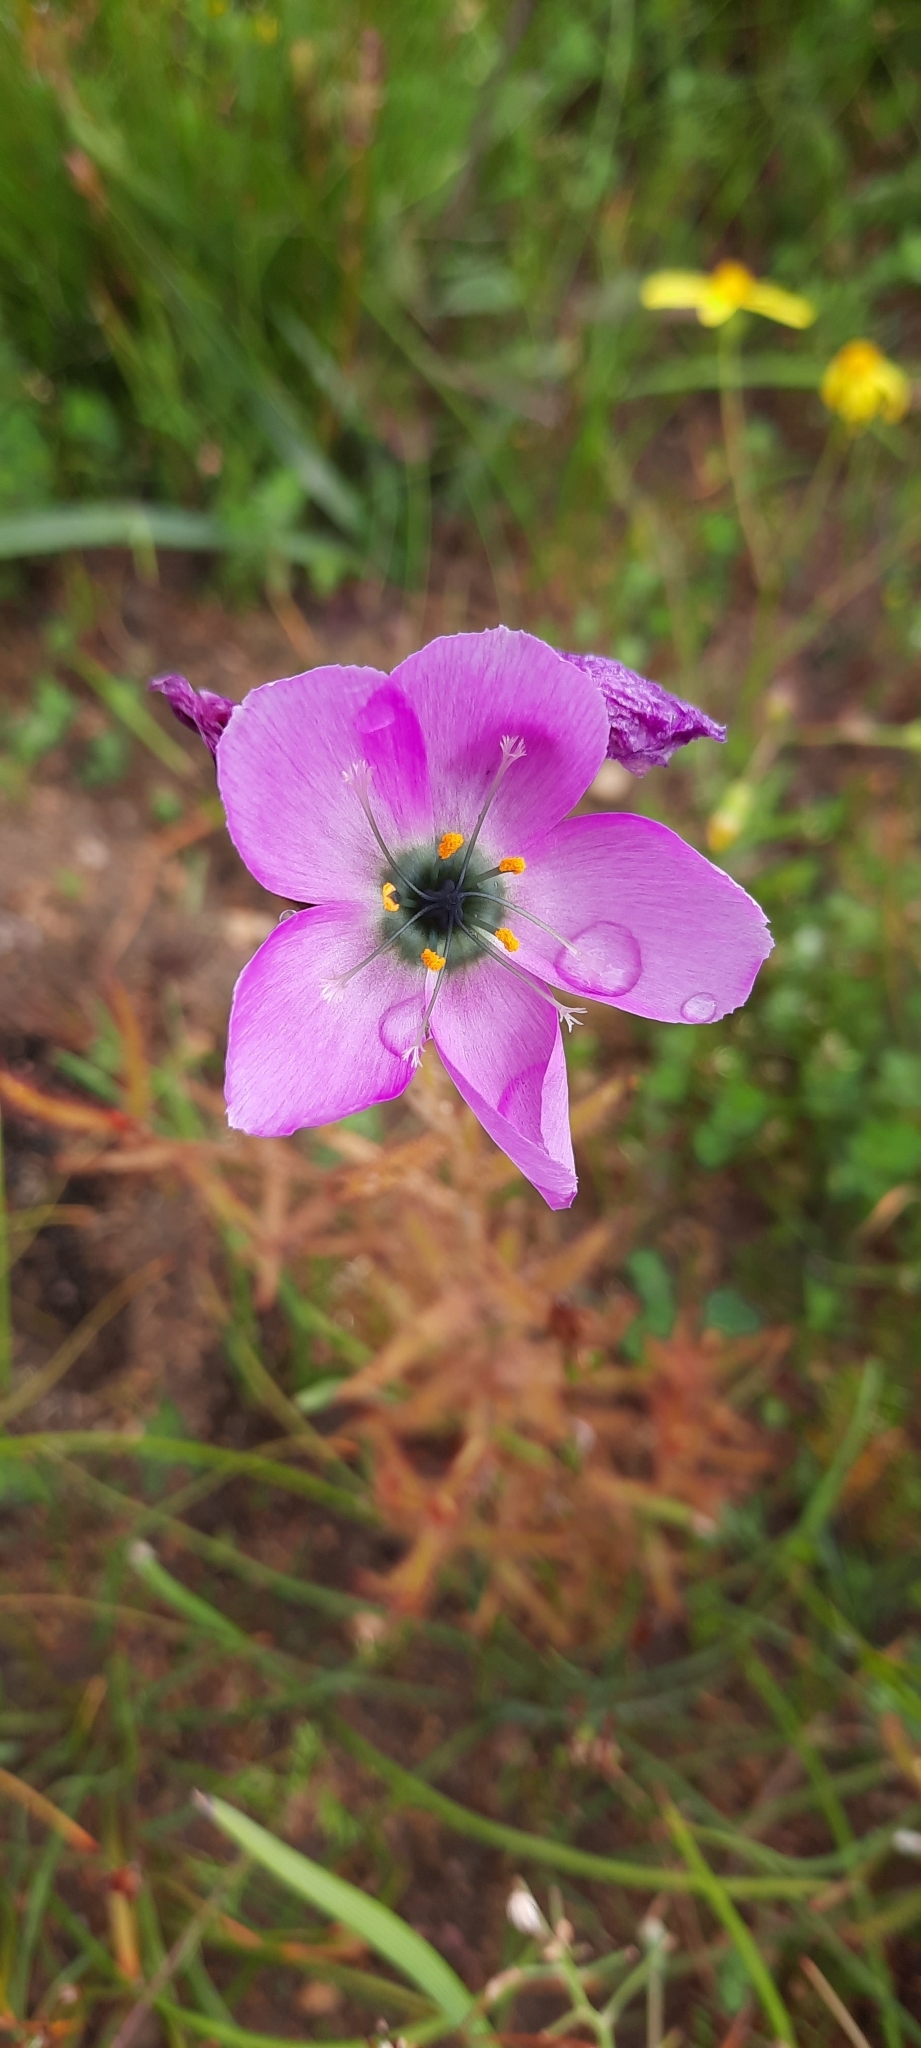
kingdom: Plantae
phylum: Tracheophyta
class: Magnoliopsida
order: Caryophyllales
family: Droseraceae
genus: Drosera
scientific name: Drosera cistiflora
